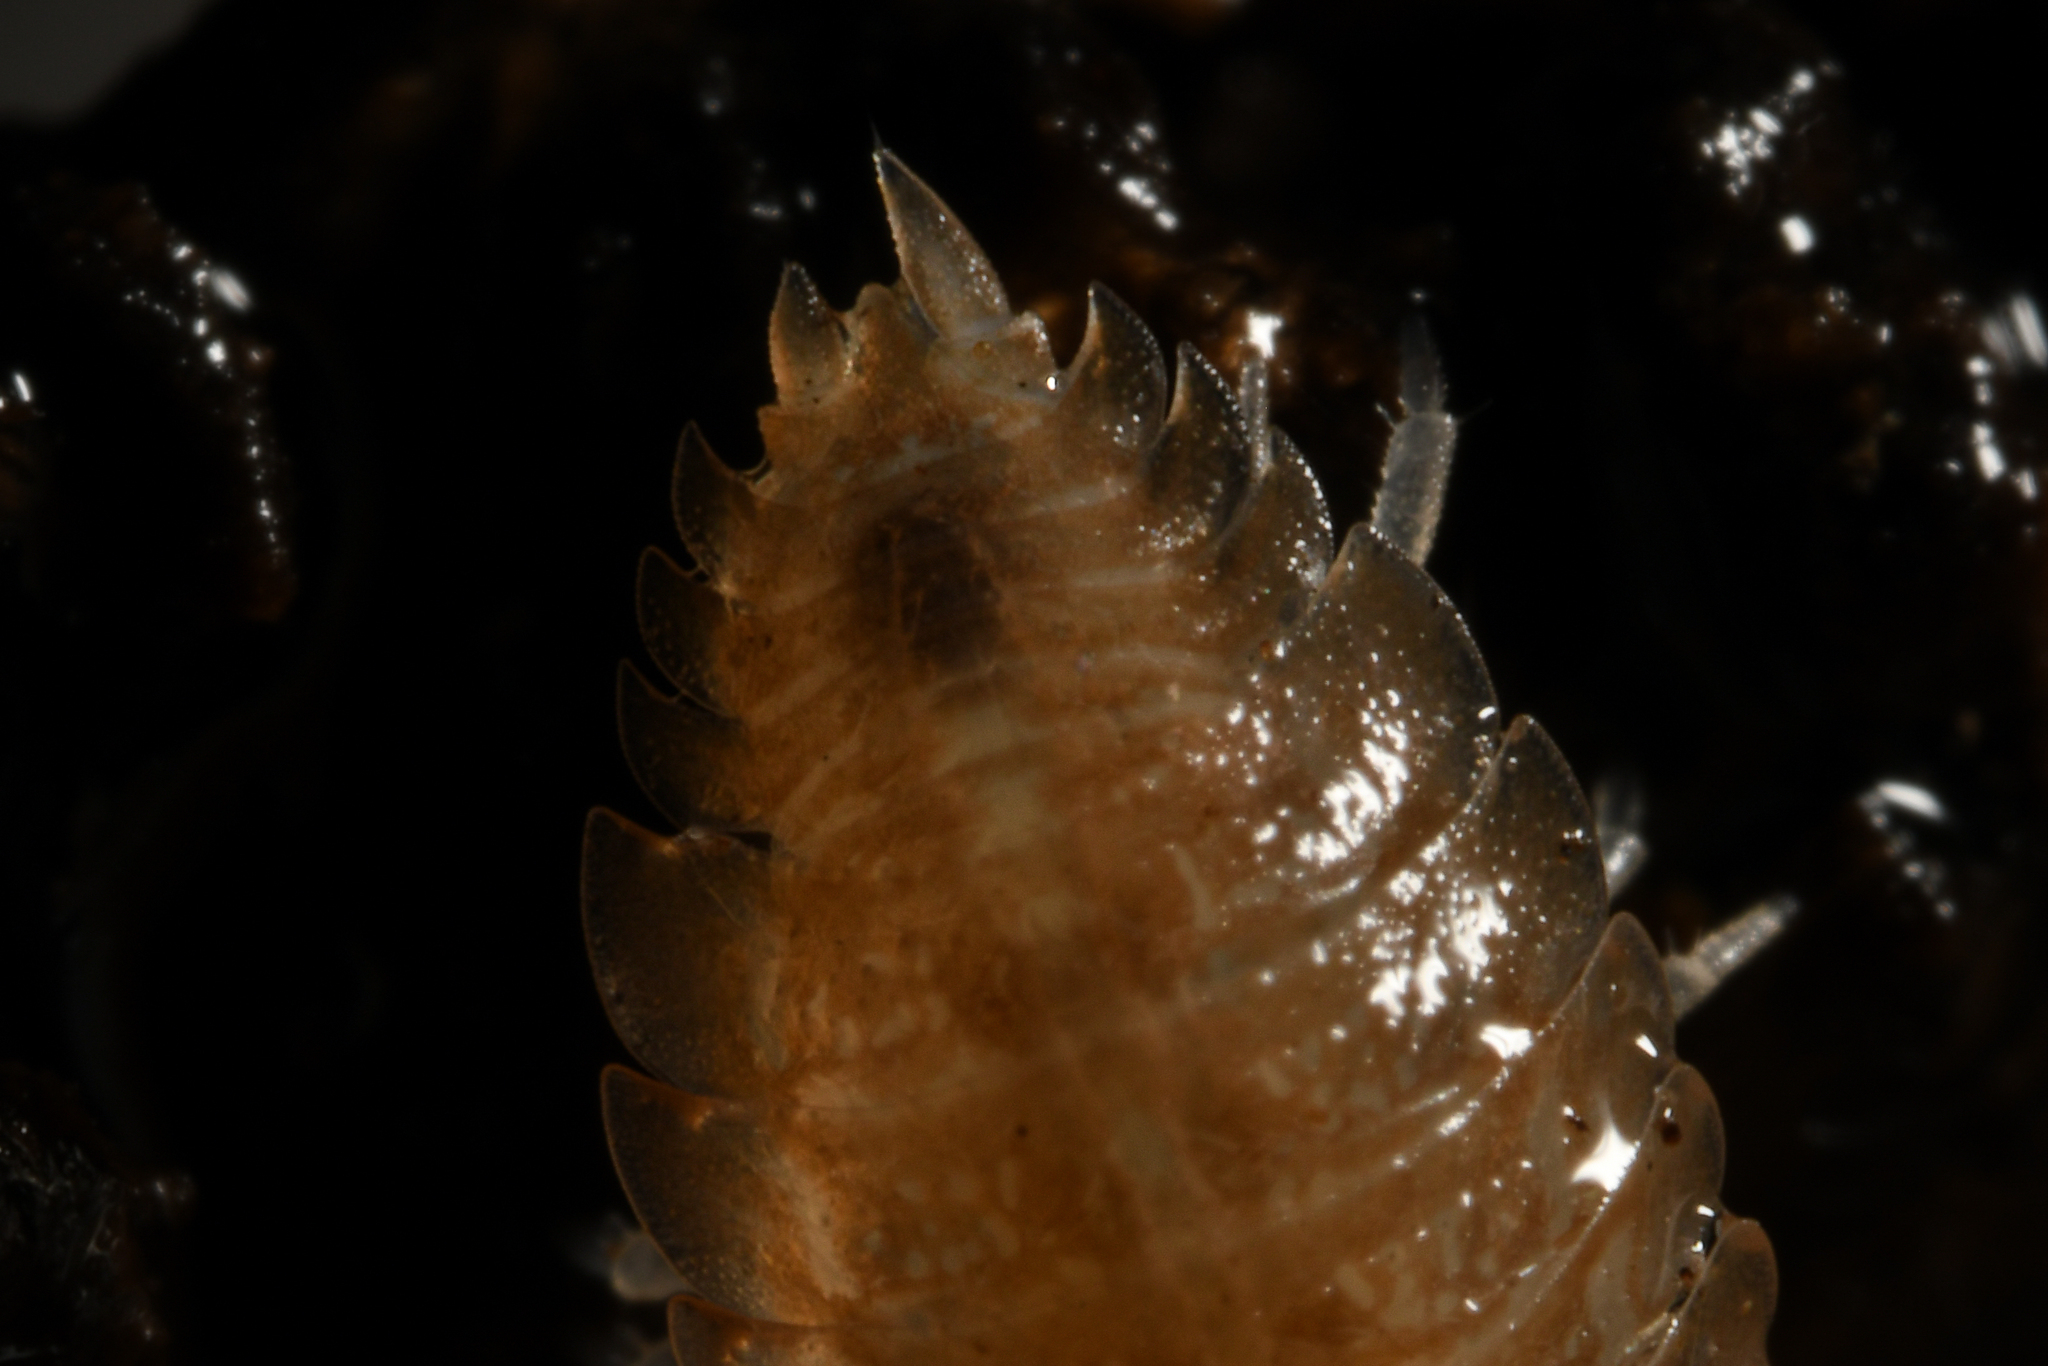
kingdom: Animalia
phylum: Arthropoda
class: Malacostraca
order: Isopoda
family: Porcellionidae
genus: Lucasius
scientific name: Lucasius pallidus
